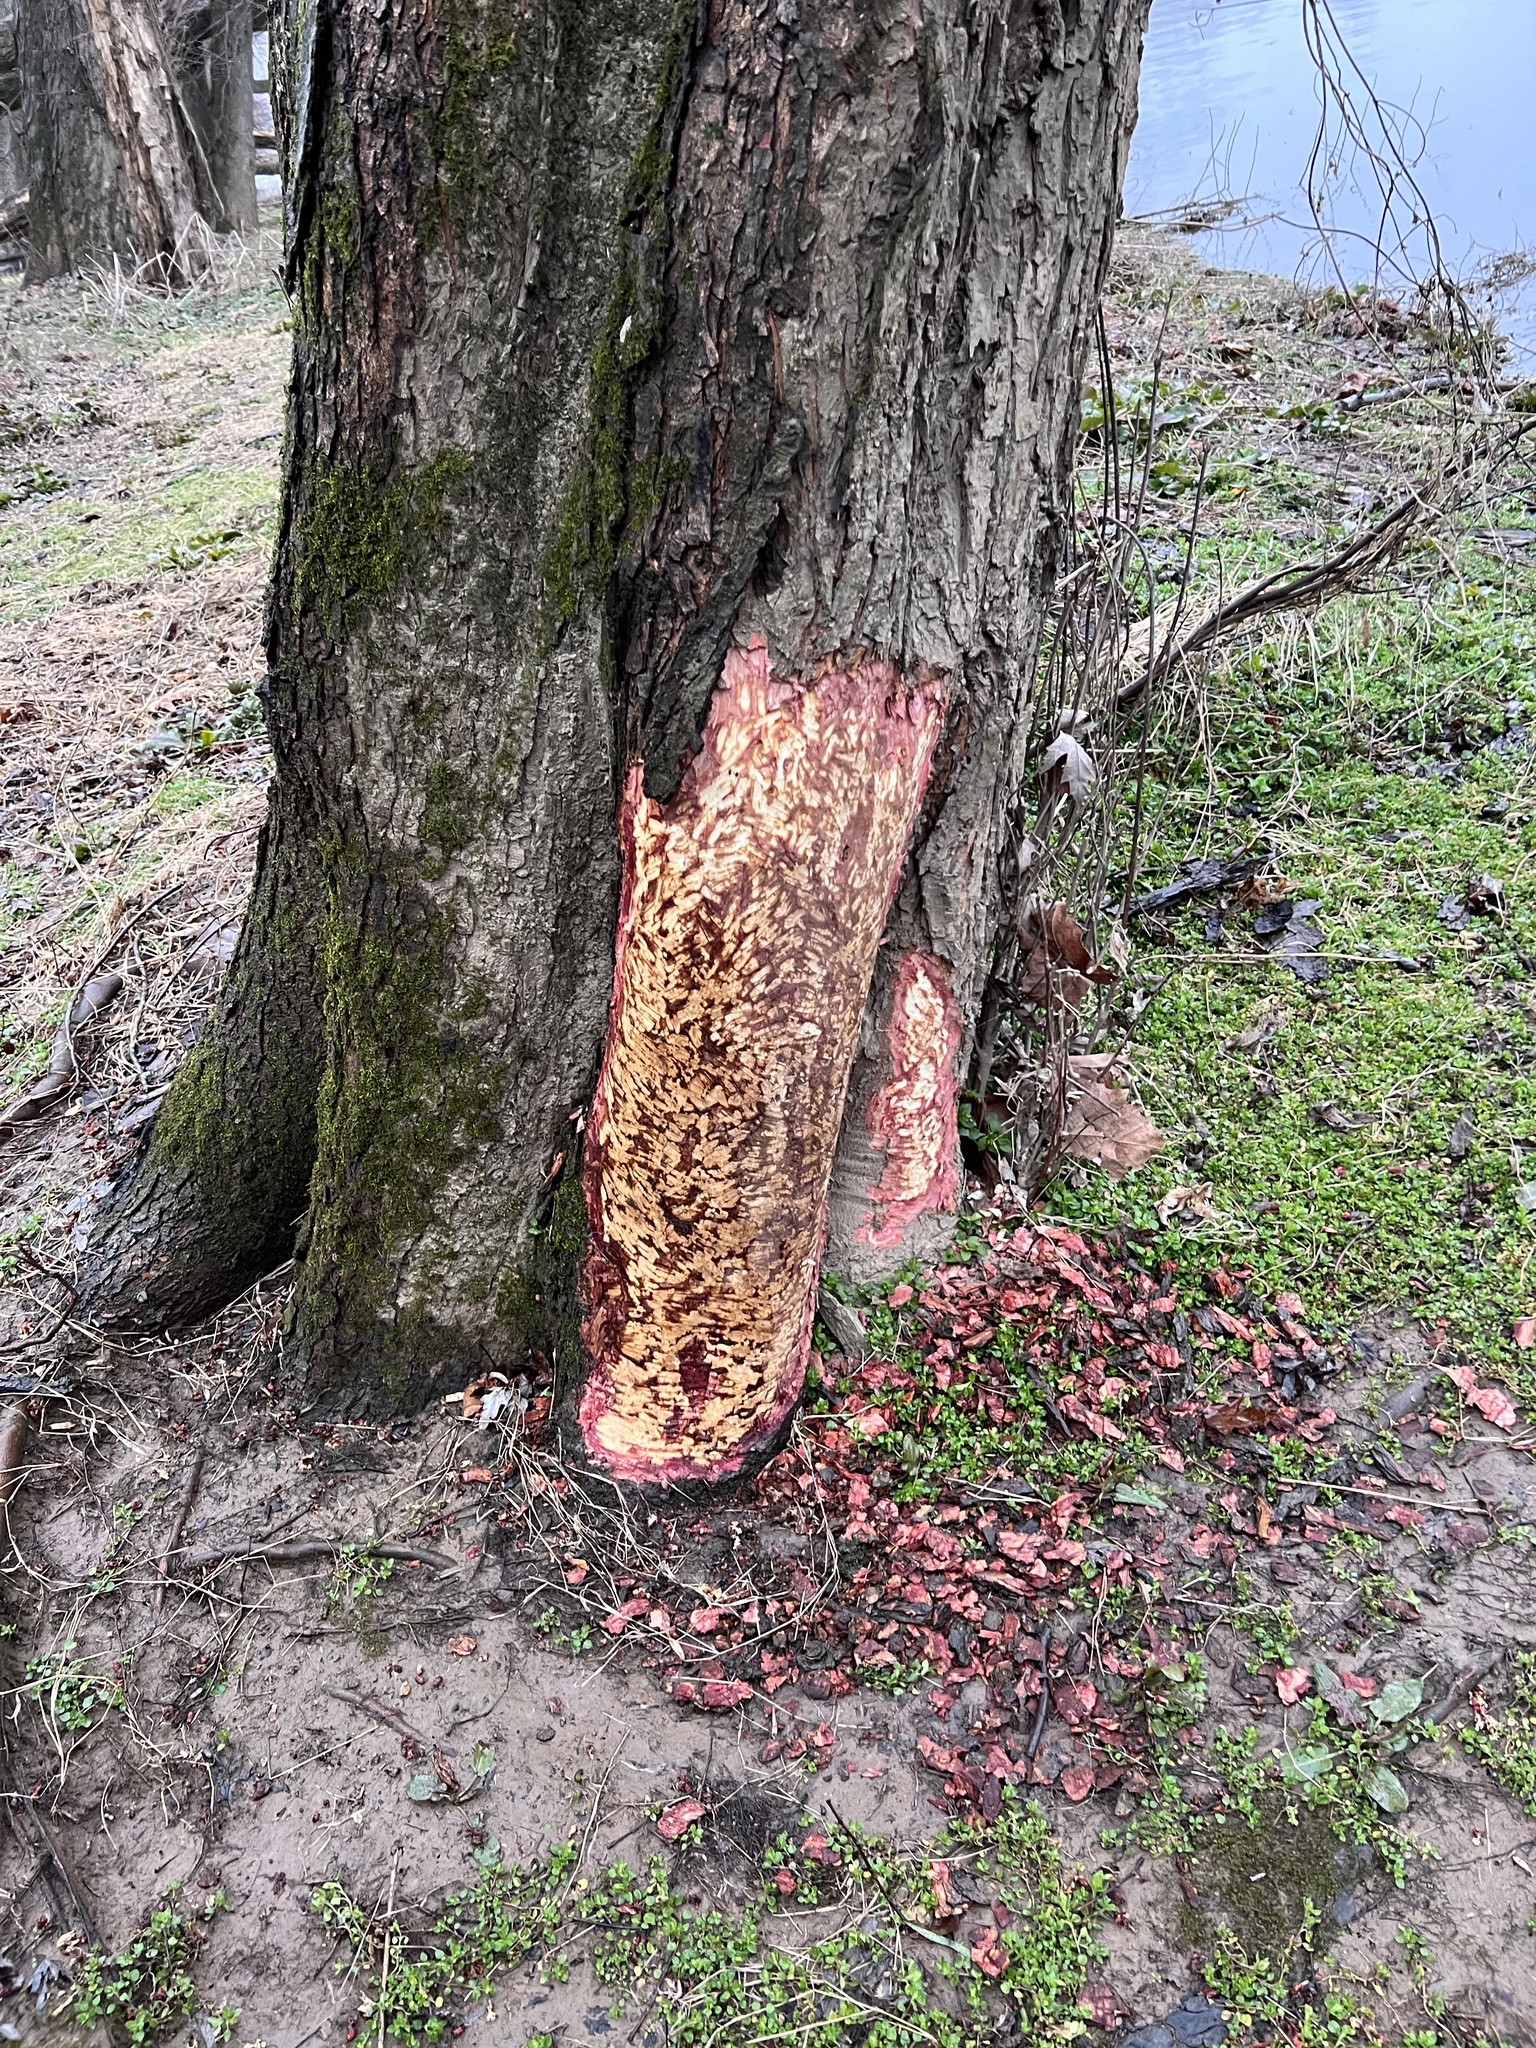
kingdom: Animalia
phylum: Chordata
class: Mammalia
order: Rodentia
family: Castoridae
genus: Castor
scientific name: Castor canadensis
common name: American beaver
